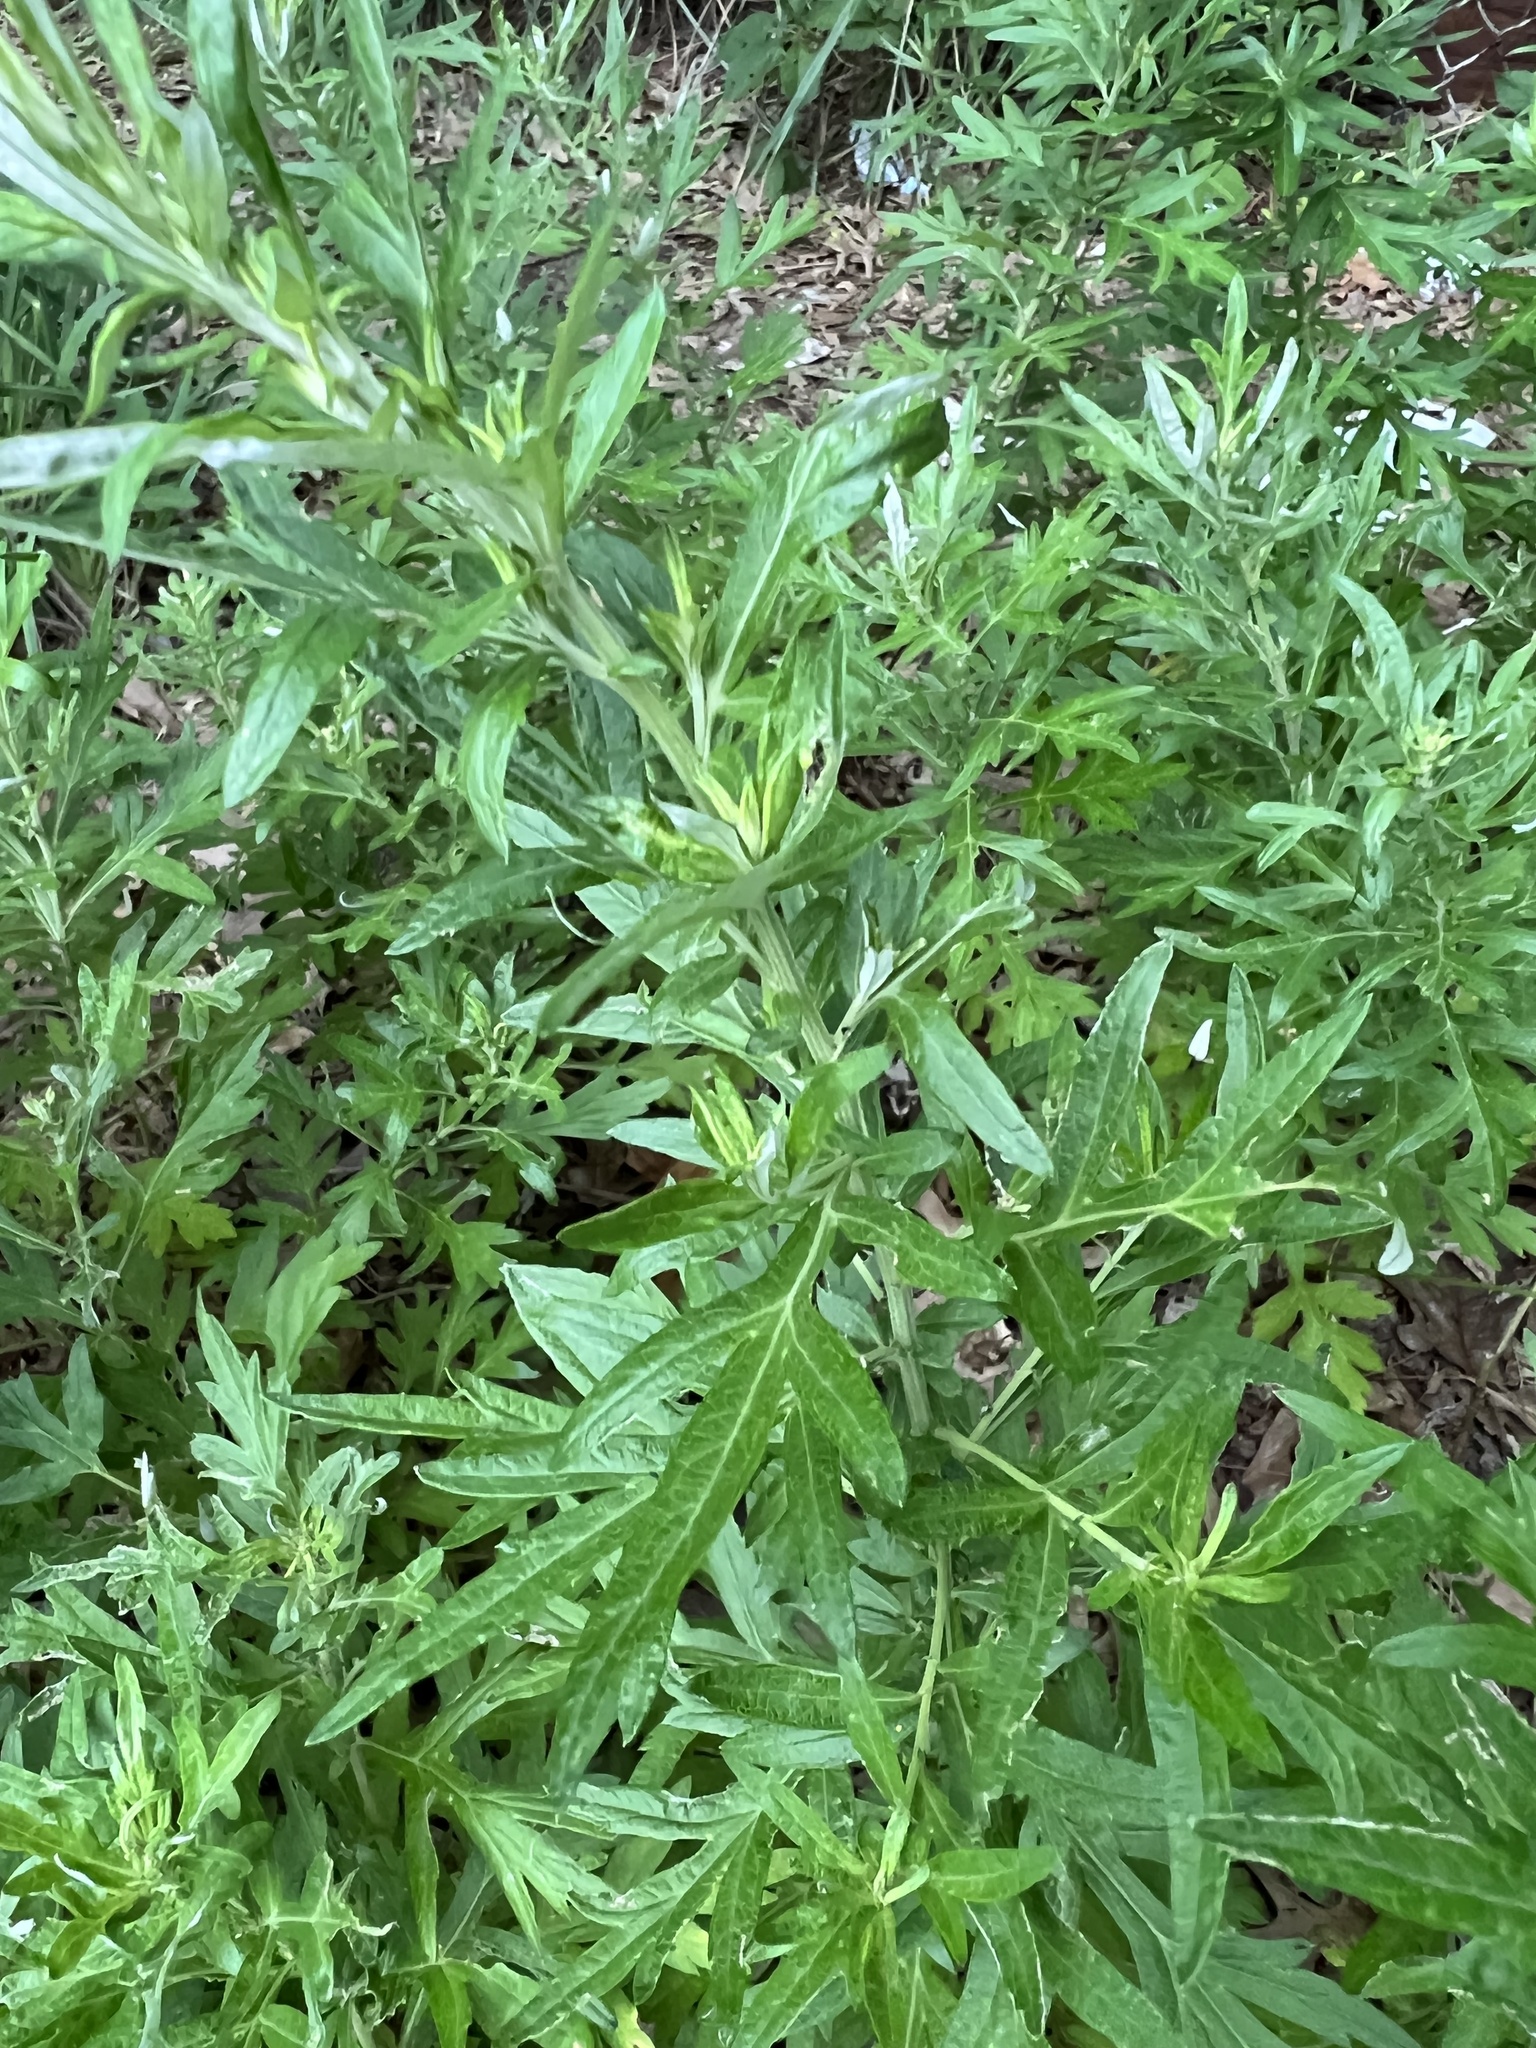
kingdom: Plantae
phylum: Tracheophyta
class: Magnoliopsida
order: Asterales
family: Asteraceae
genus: Artemisia
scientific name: Artemisia vulgaris
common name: Mugwort
